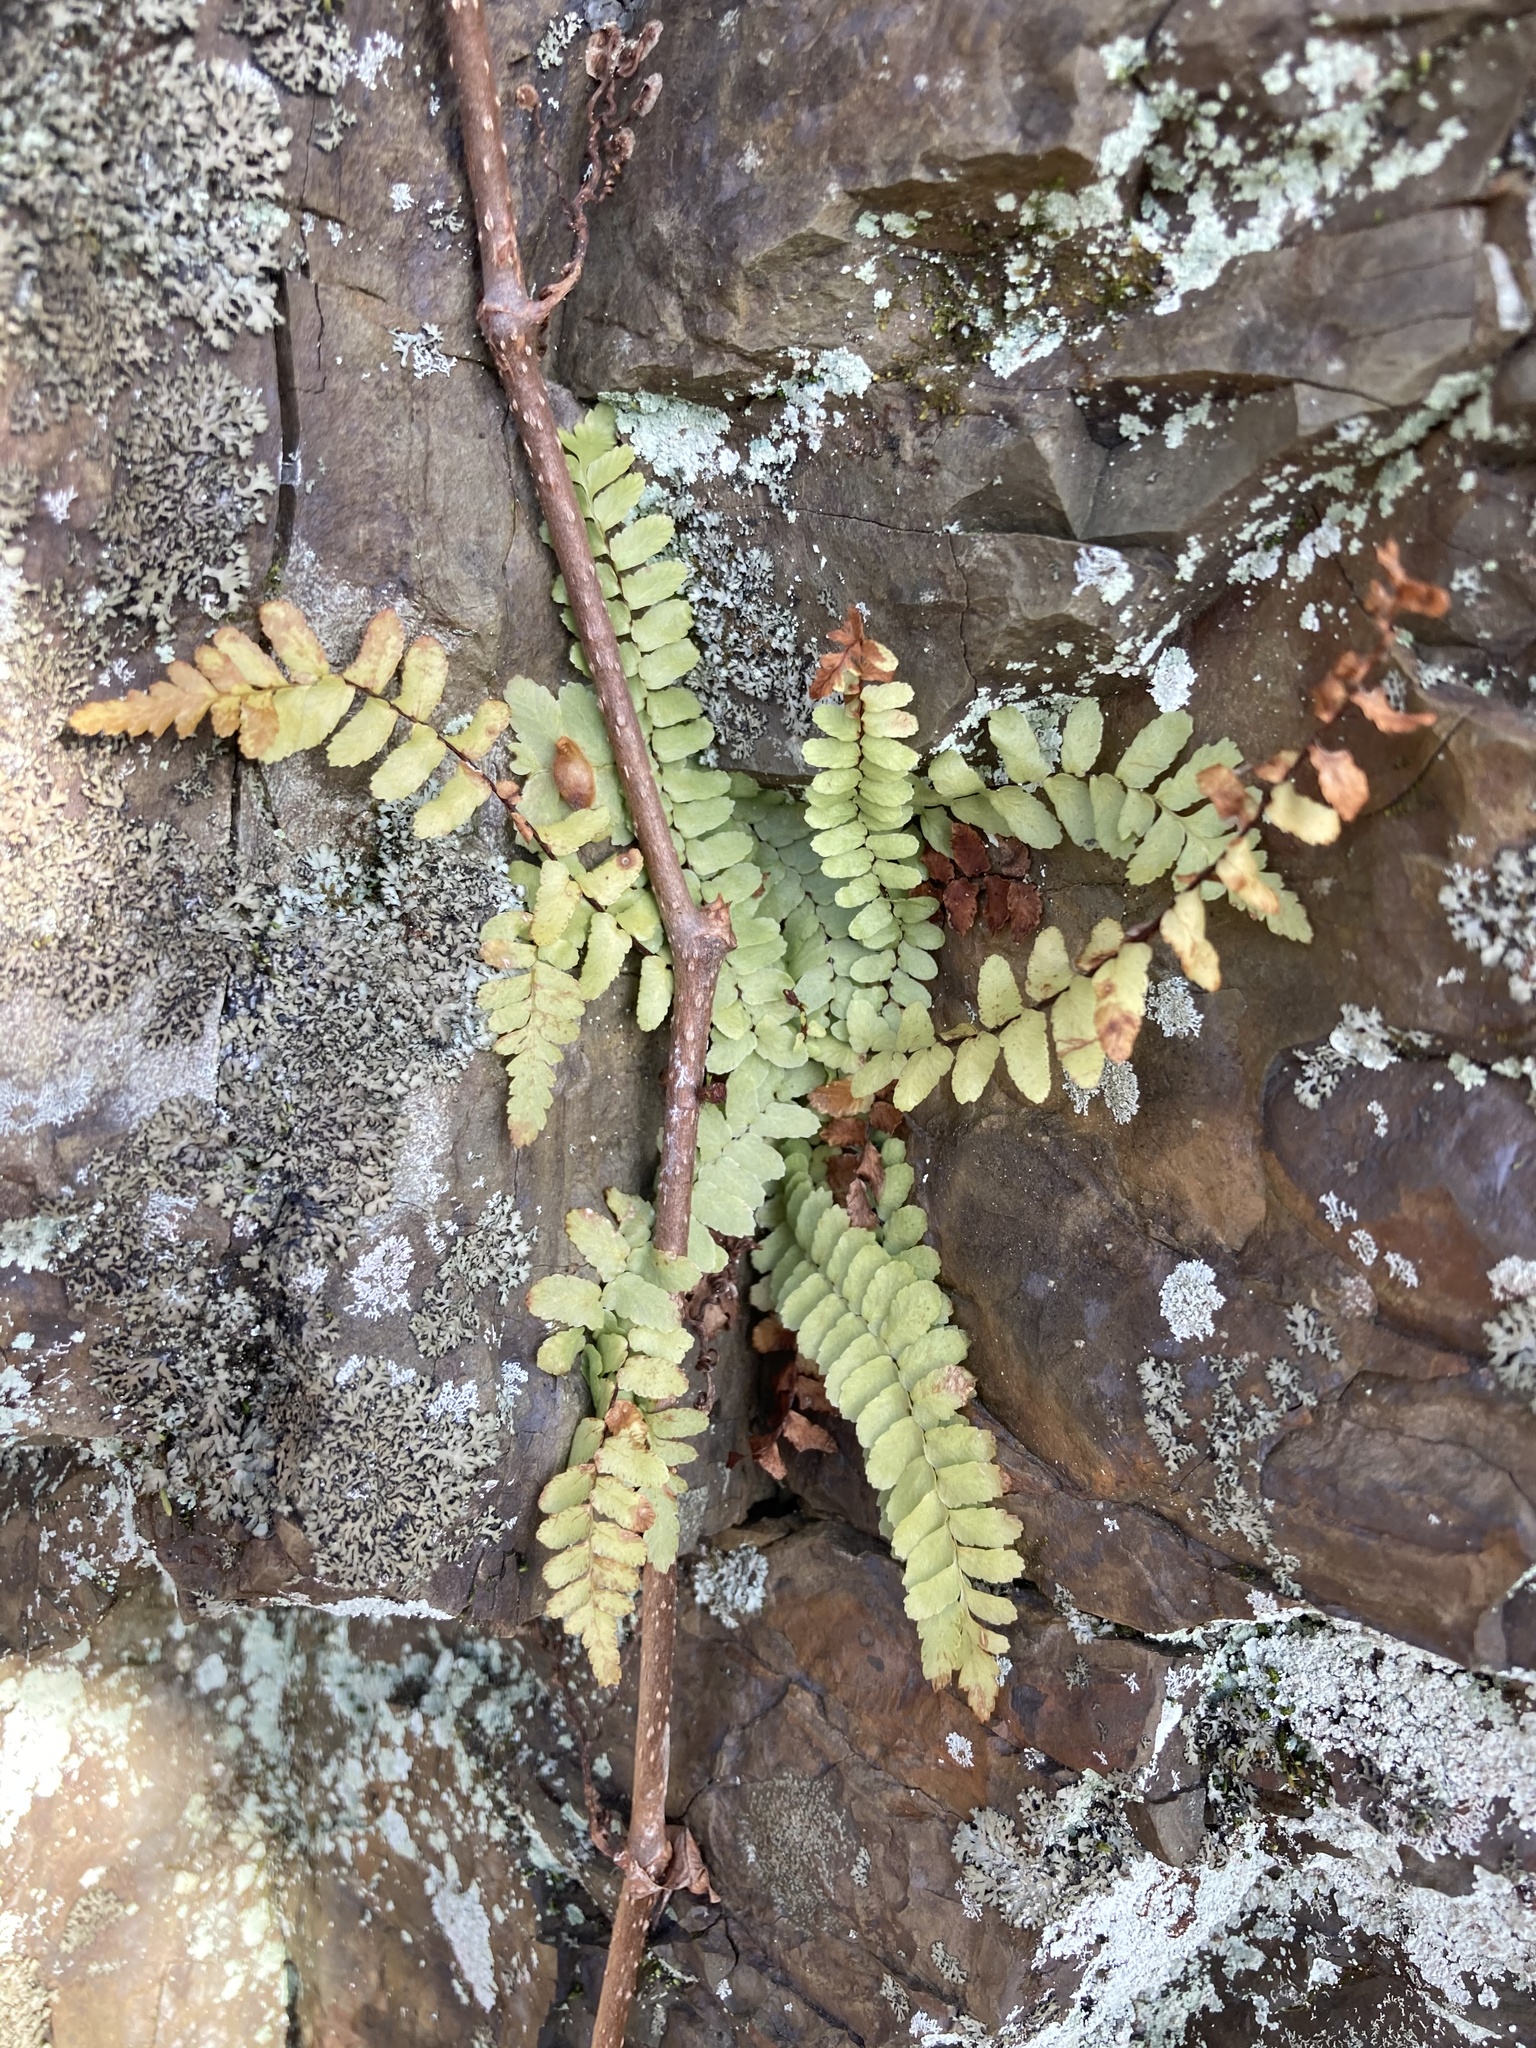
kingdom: Plantae
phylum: Tracheophyta
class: Polypodiopsida
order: Polypodiales
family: Aspleniaceae
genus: Asplenium
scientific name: Asplenium platyneuron
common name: Ebony spleenwort
